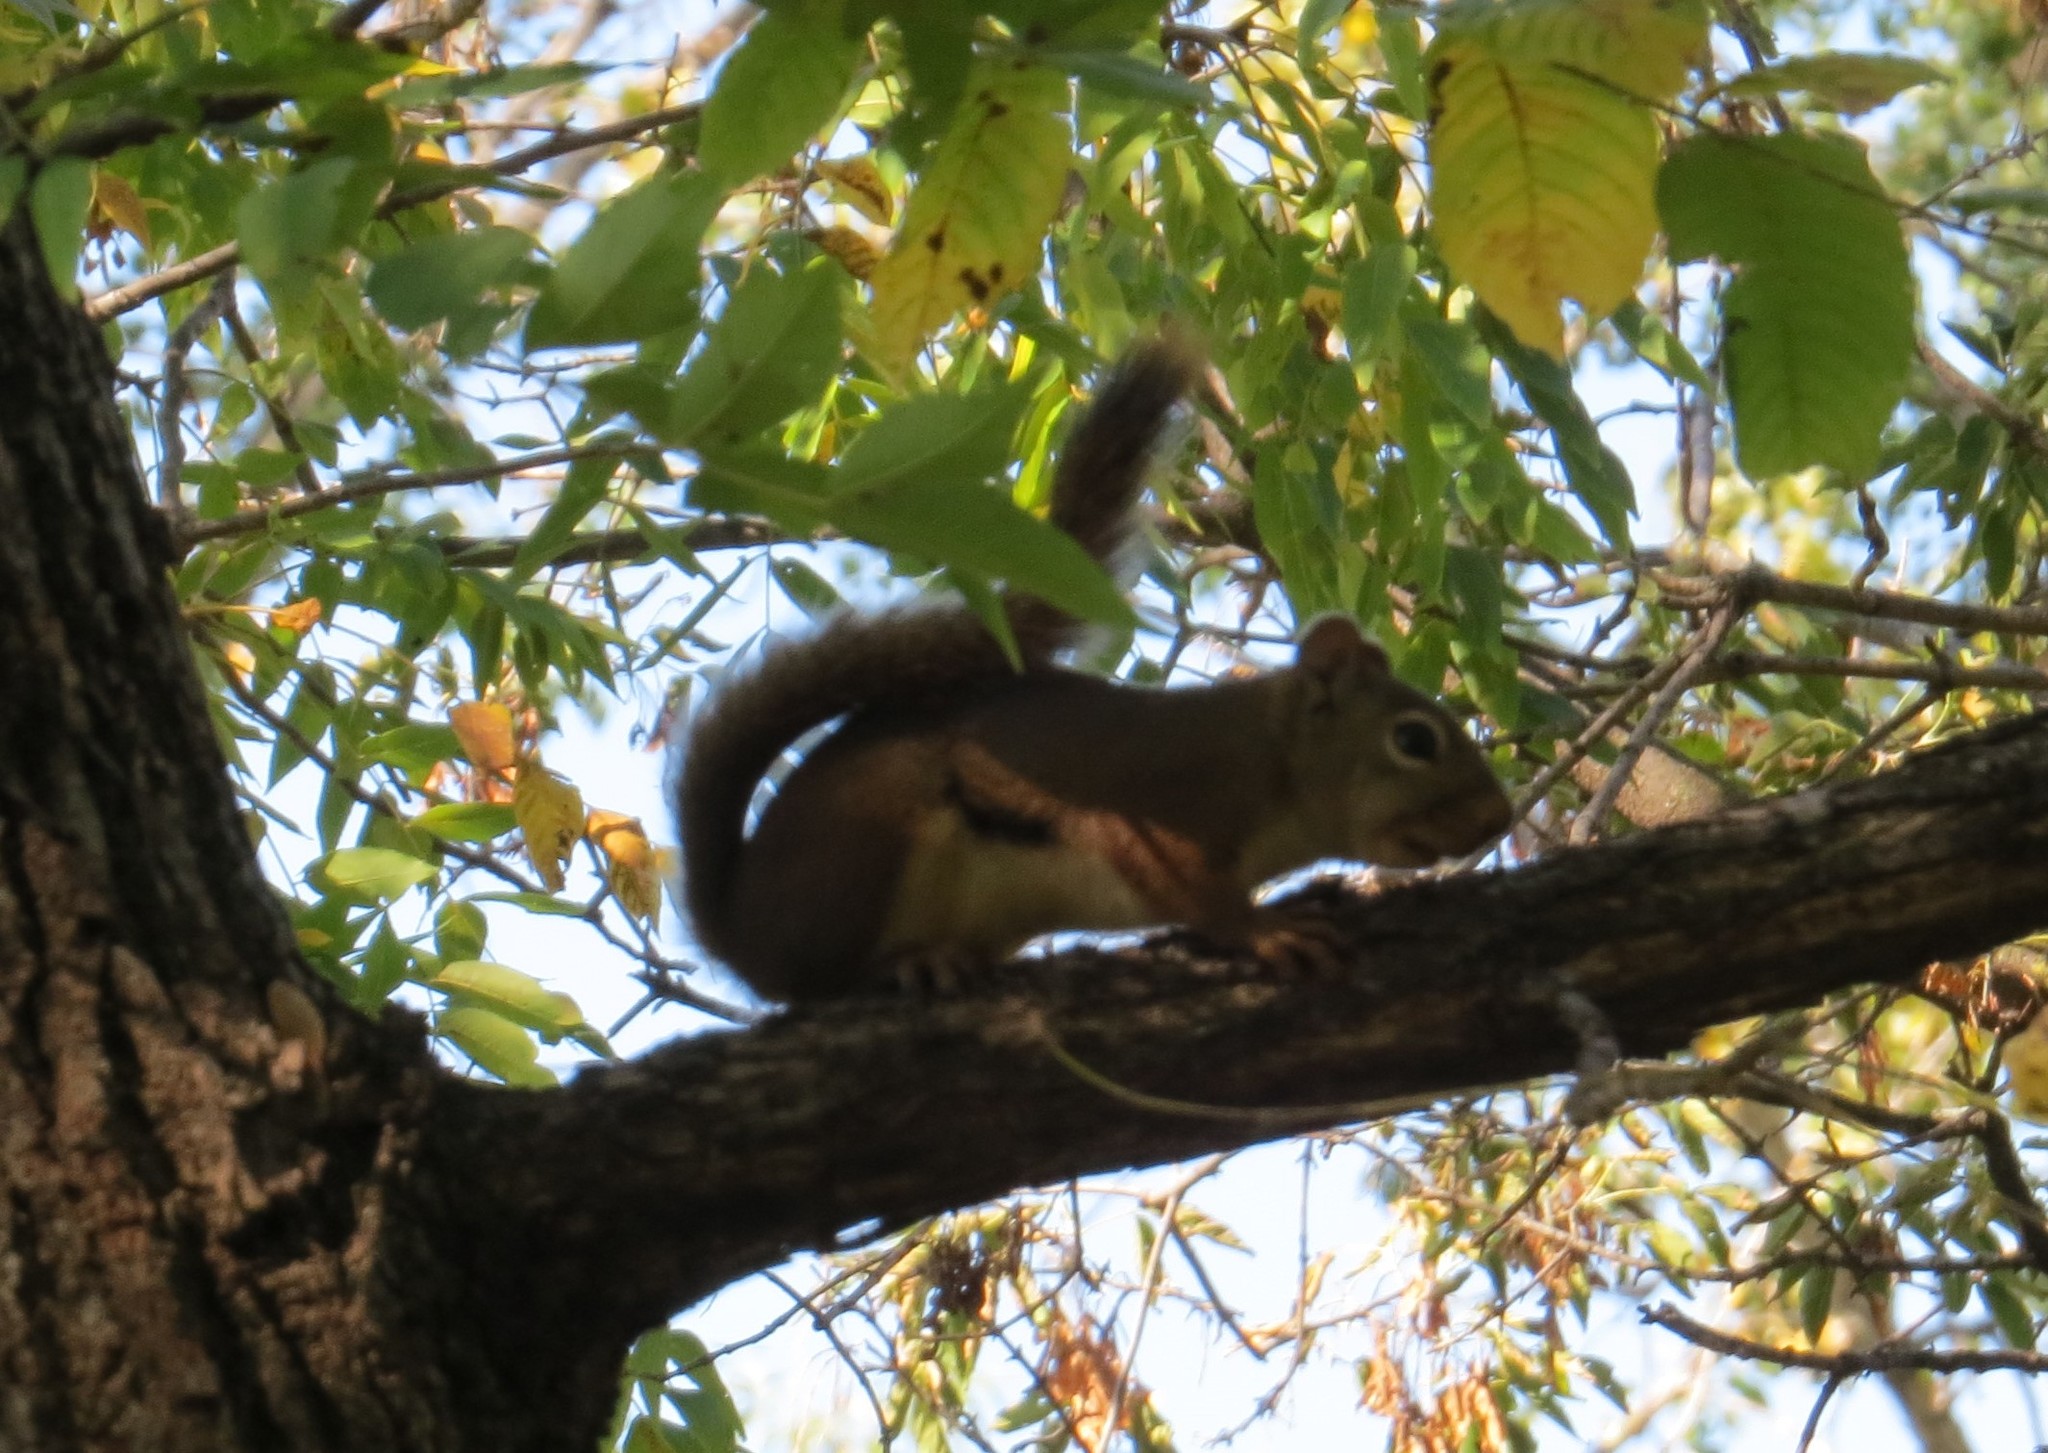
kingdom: Animalia
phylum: Chordata
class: Mammalia
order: Rodentia
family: Sciuridae
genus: Tamiasciurus
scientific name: Tamiasciurus hudsonicus
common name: Red squirrel
